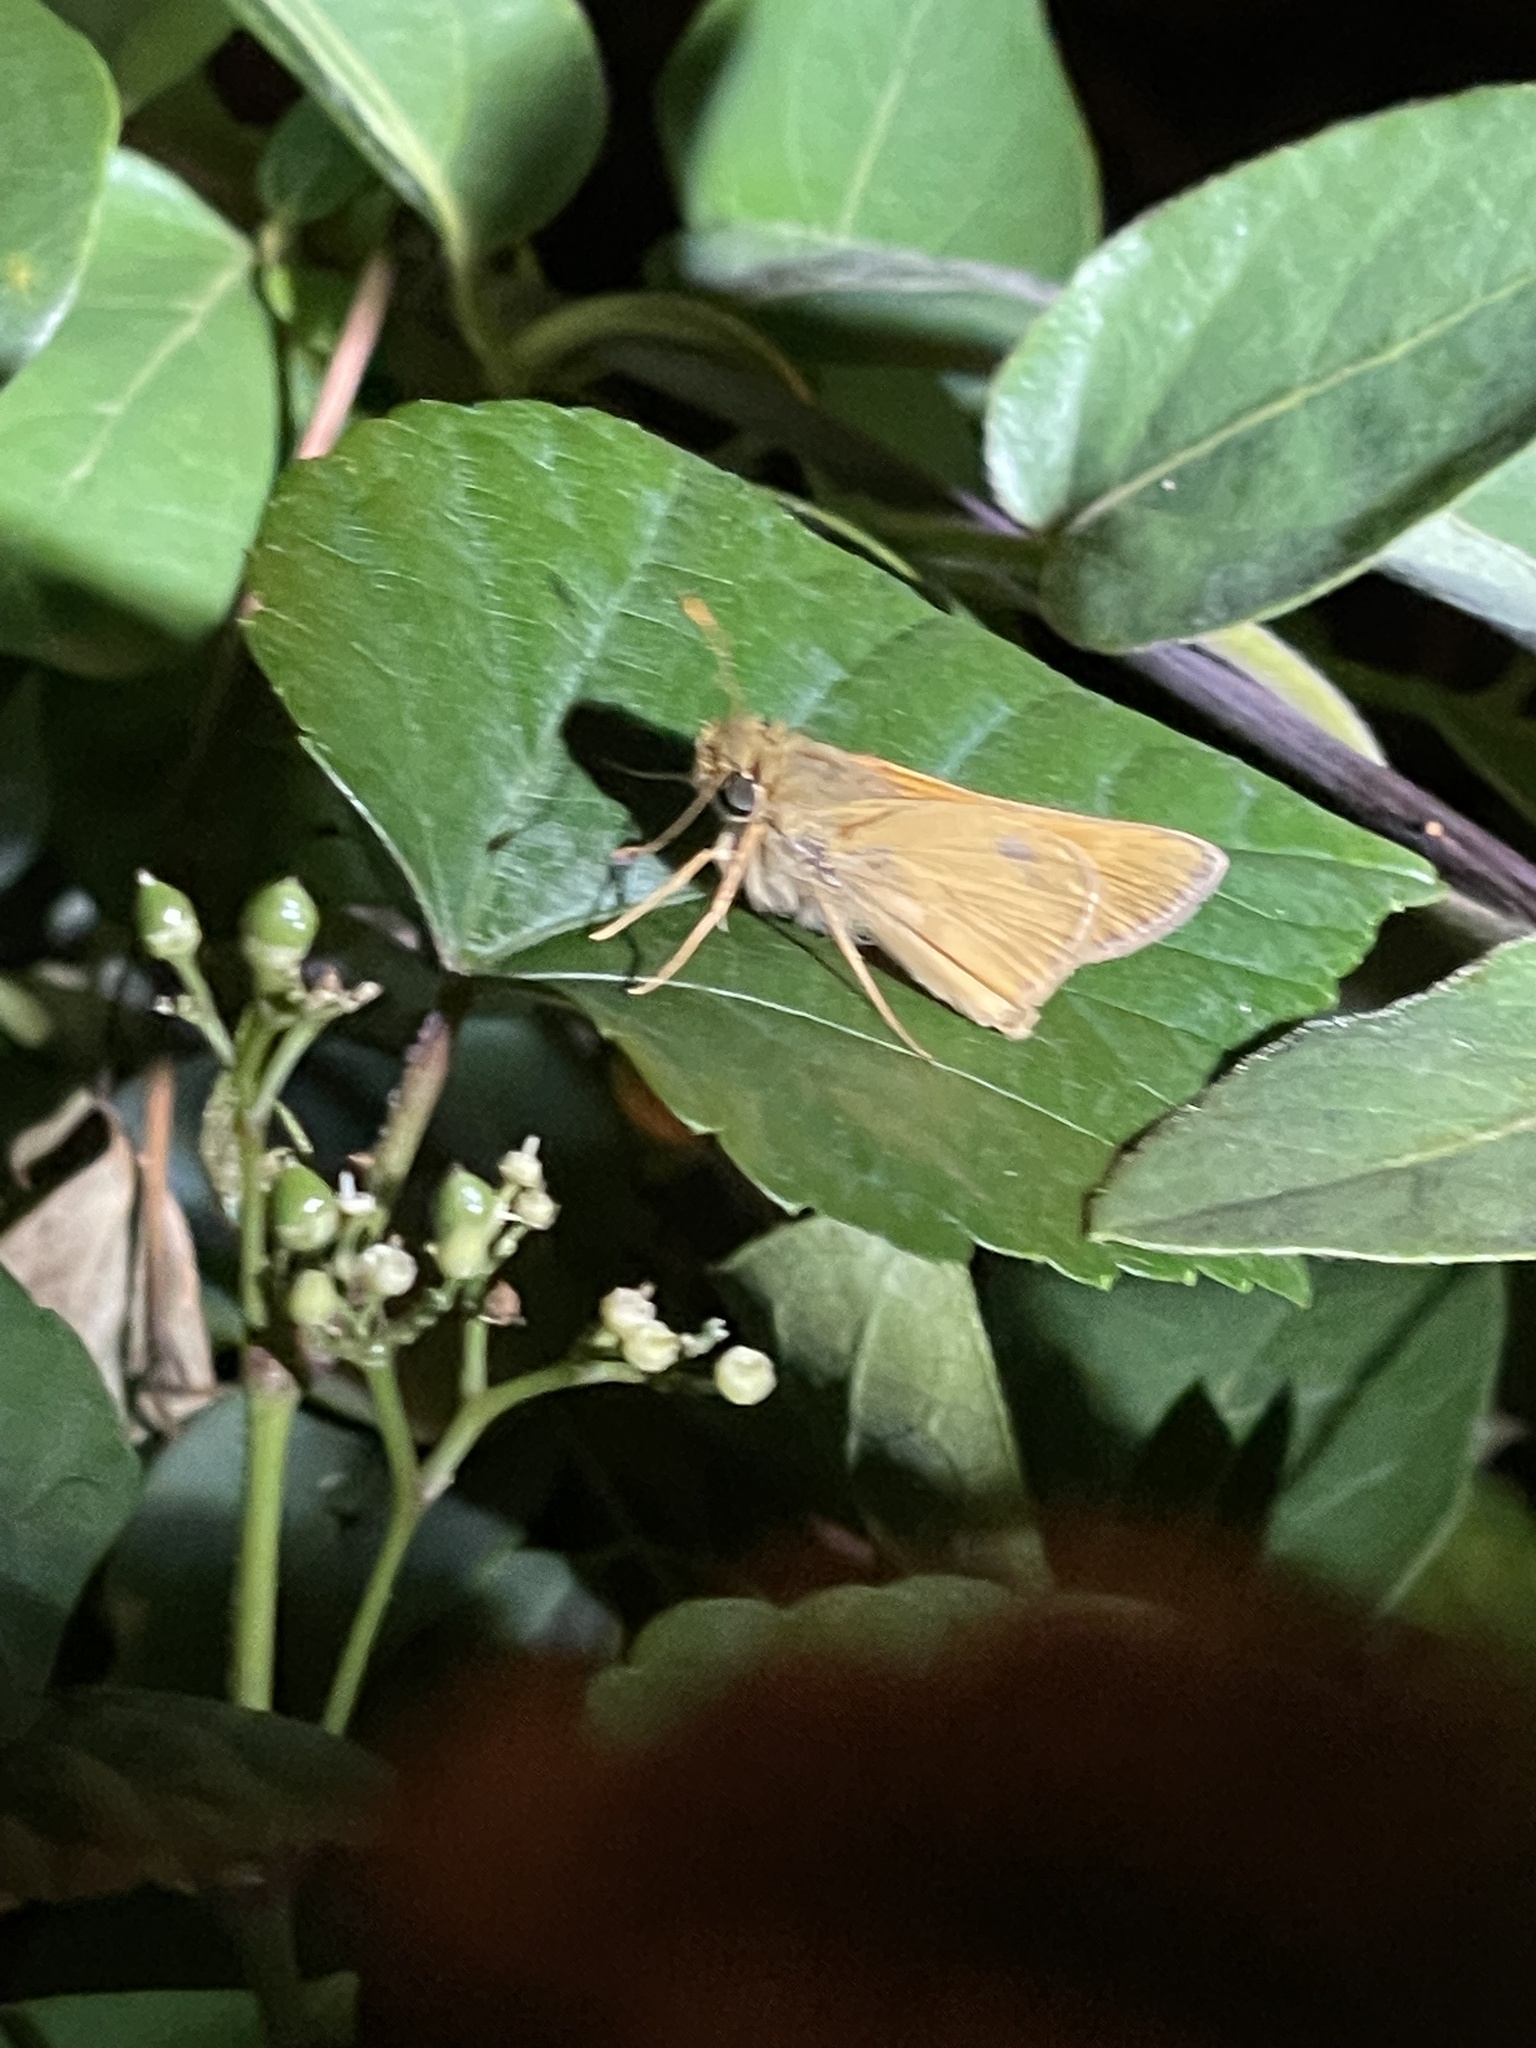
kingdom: Animalia
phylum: Arthropoda
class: Insecta
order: Lepidoptera
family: Hesperiidae
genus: Atalopedes
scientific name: Atalopedes
